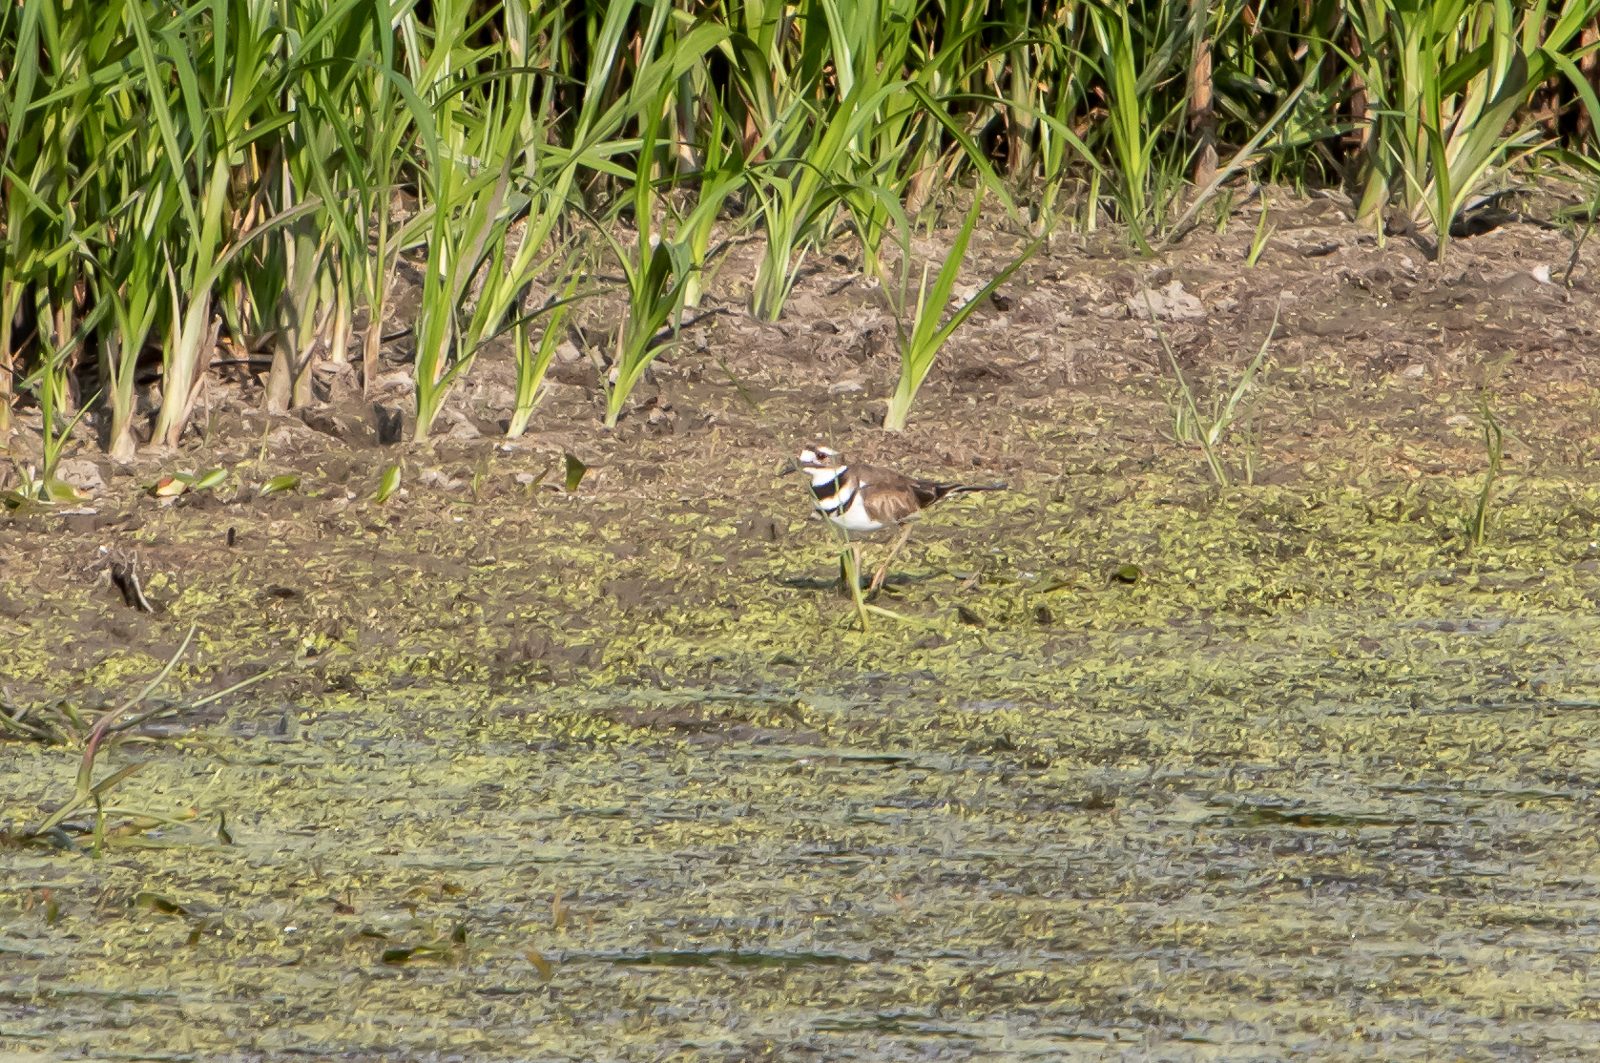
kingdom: Animalia
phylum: Chordata
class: Aves
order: Charadriiformes
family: Charadriidae
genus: Charadrius
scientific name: Charadrius vociferus
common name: Killdeer
